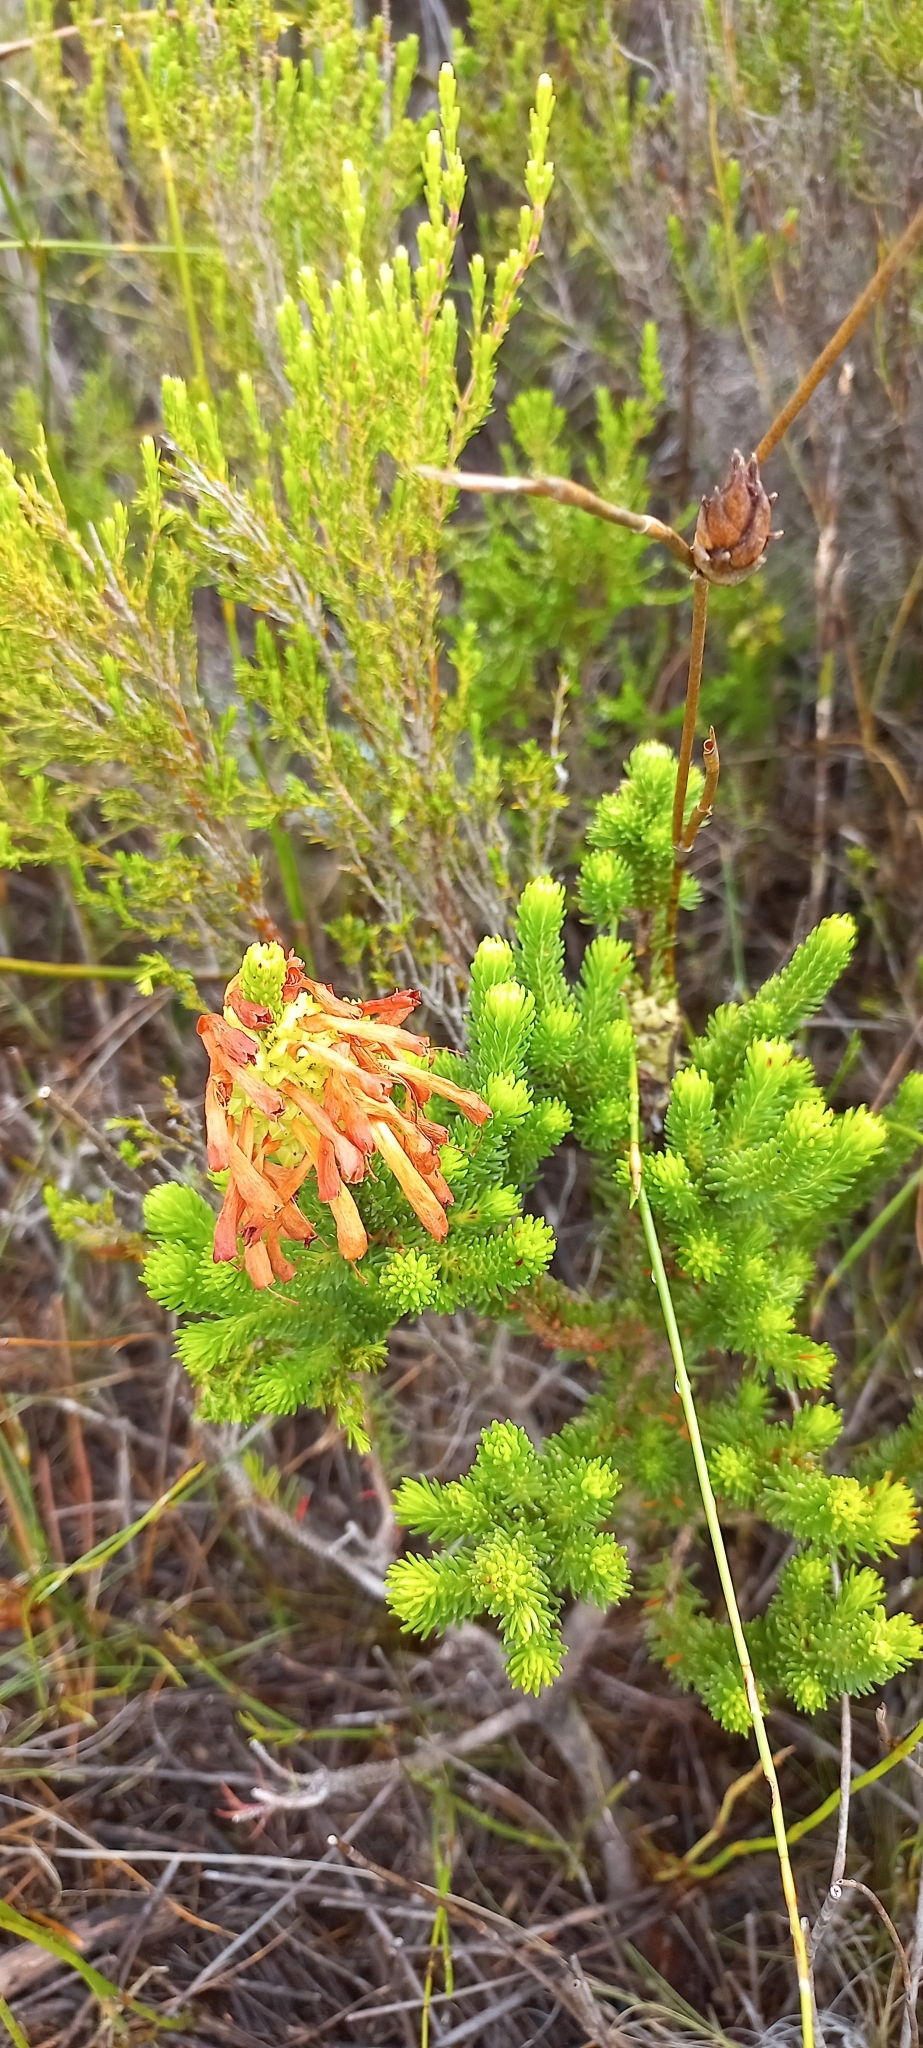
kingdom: Plantae
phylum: Tracheophyta
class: Magnoliopsida
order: Ericales
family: Ericaceae
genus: Erica
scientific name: Erica sessiliflora
